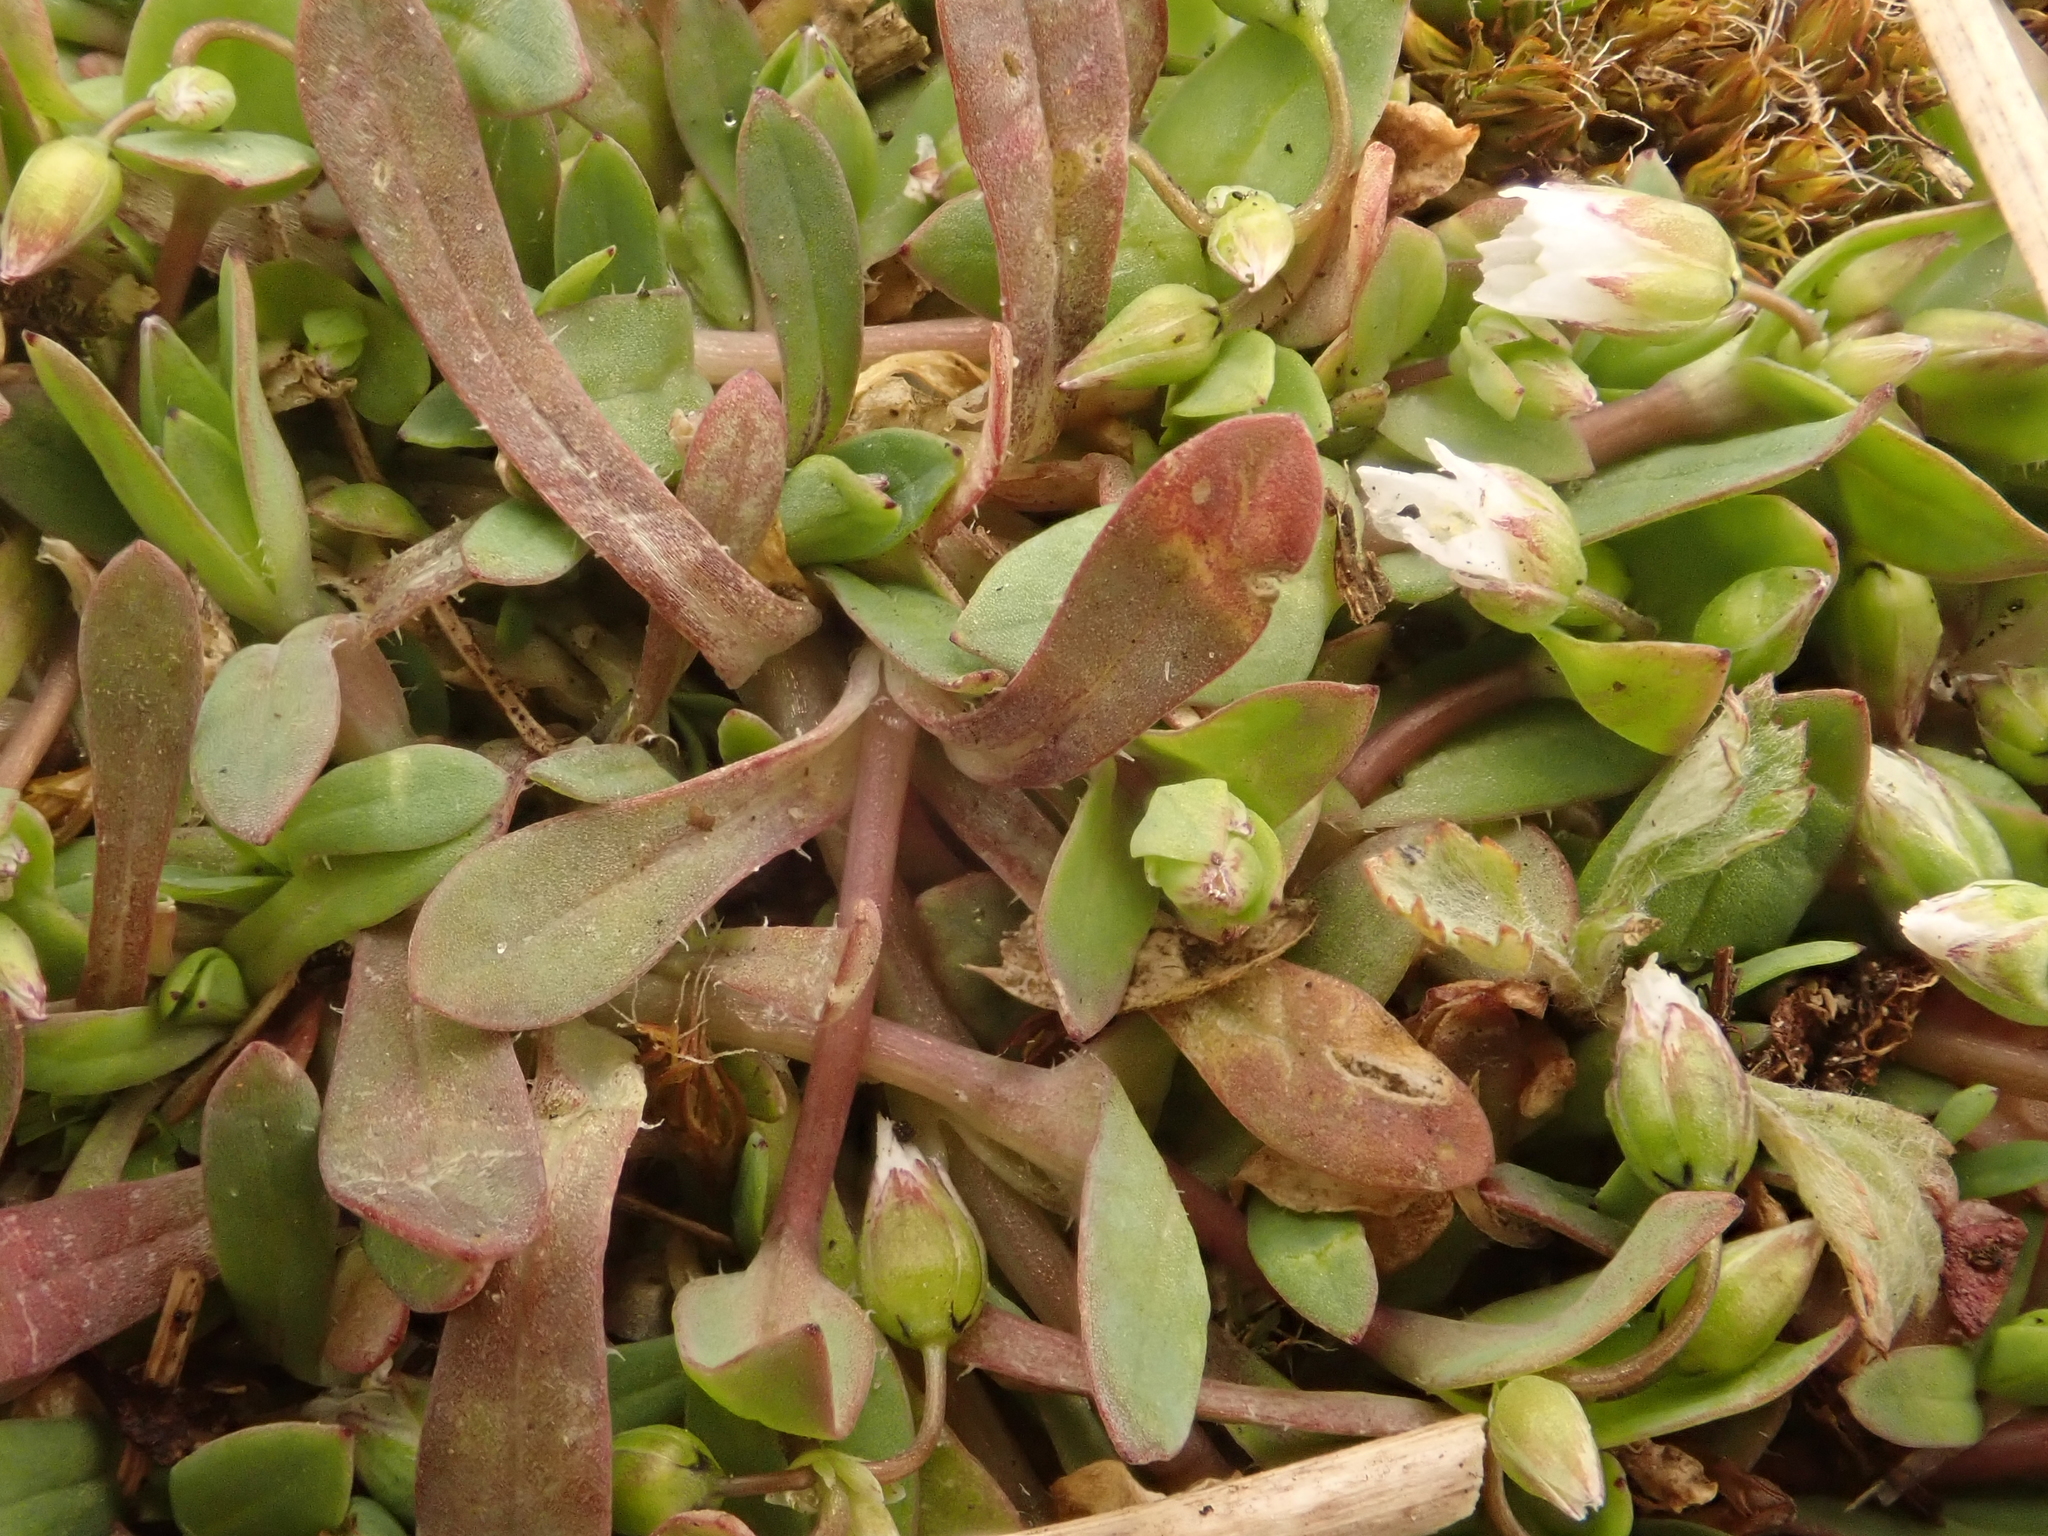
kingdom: Plantae
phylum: Tracheophyta
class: Magnoliopsida
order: Caryophyllales
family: Caryophyllaceae
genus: Holosteum
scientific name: Holosteum umbellatum
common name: Jagged chickweed
